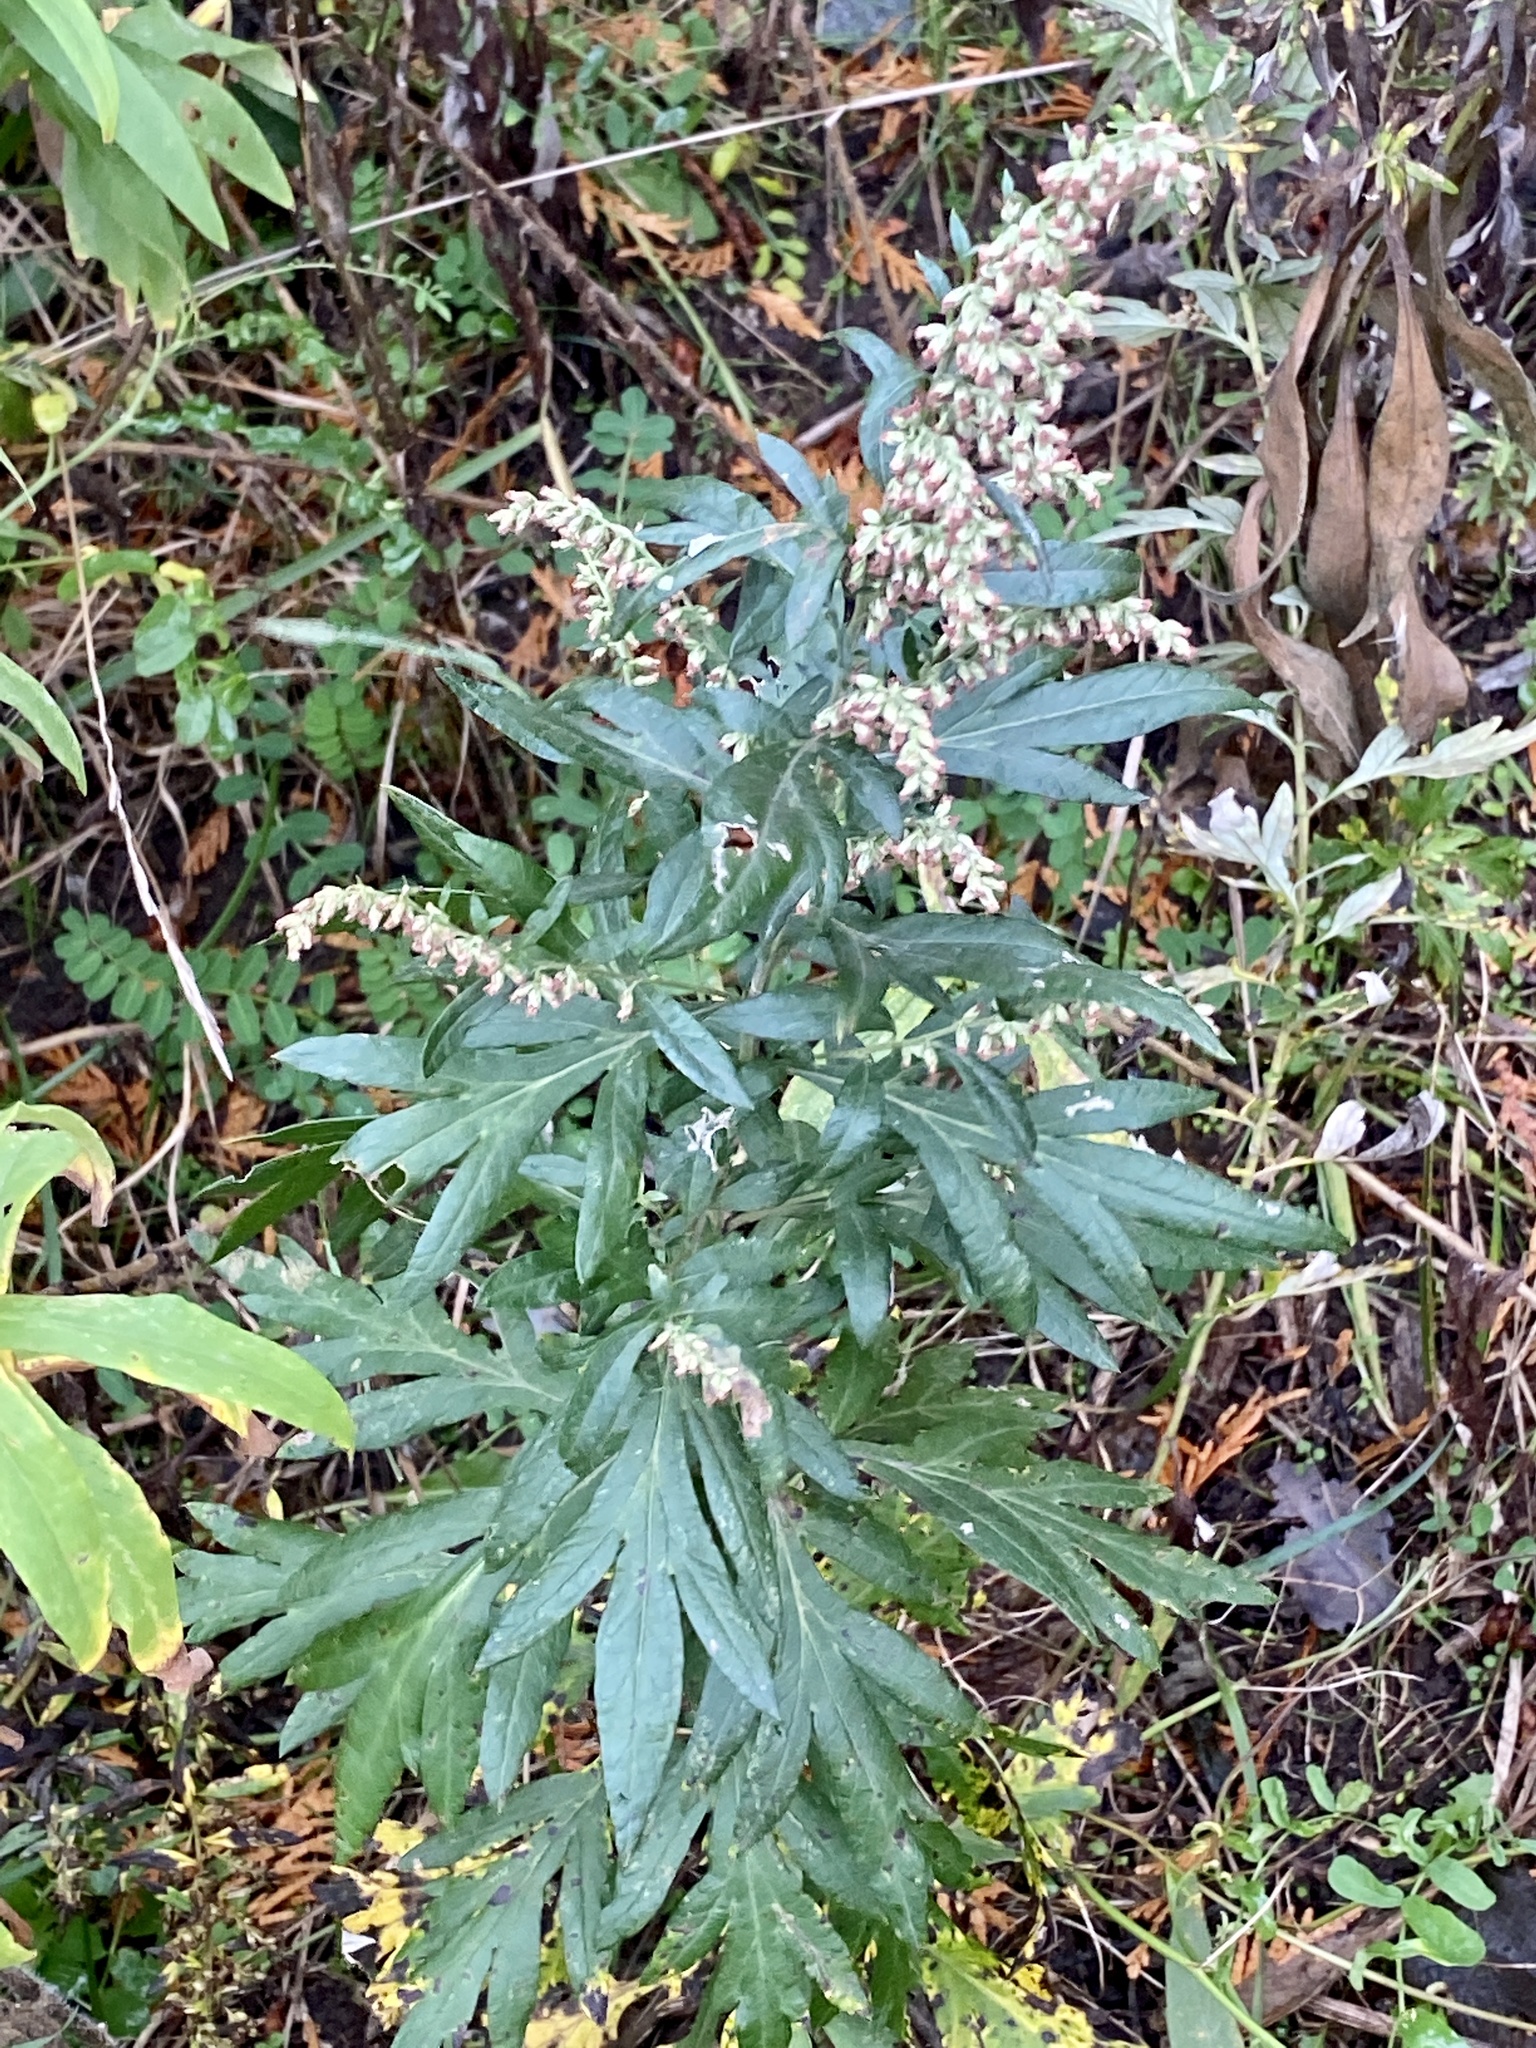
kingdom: Plantae
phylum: Tracheophyta
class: Magnoliopsida
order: Asterales
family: Asteraceae
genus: Artemisia
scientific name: Artemisia vulgaris
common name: Mugwort
